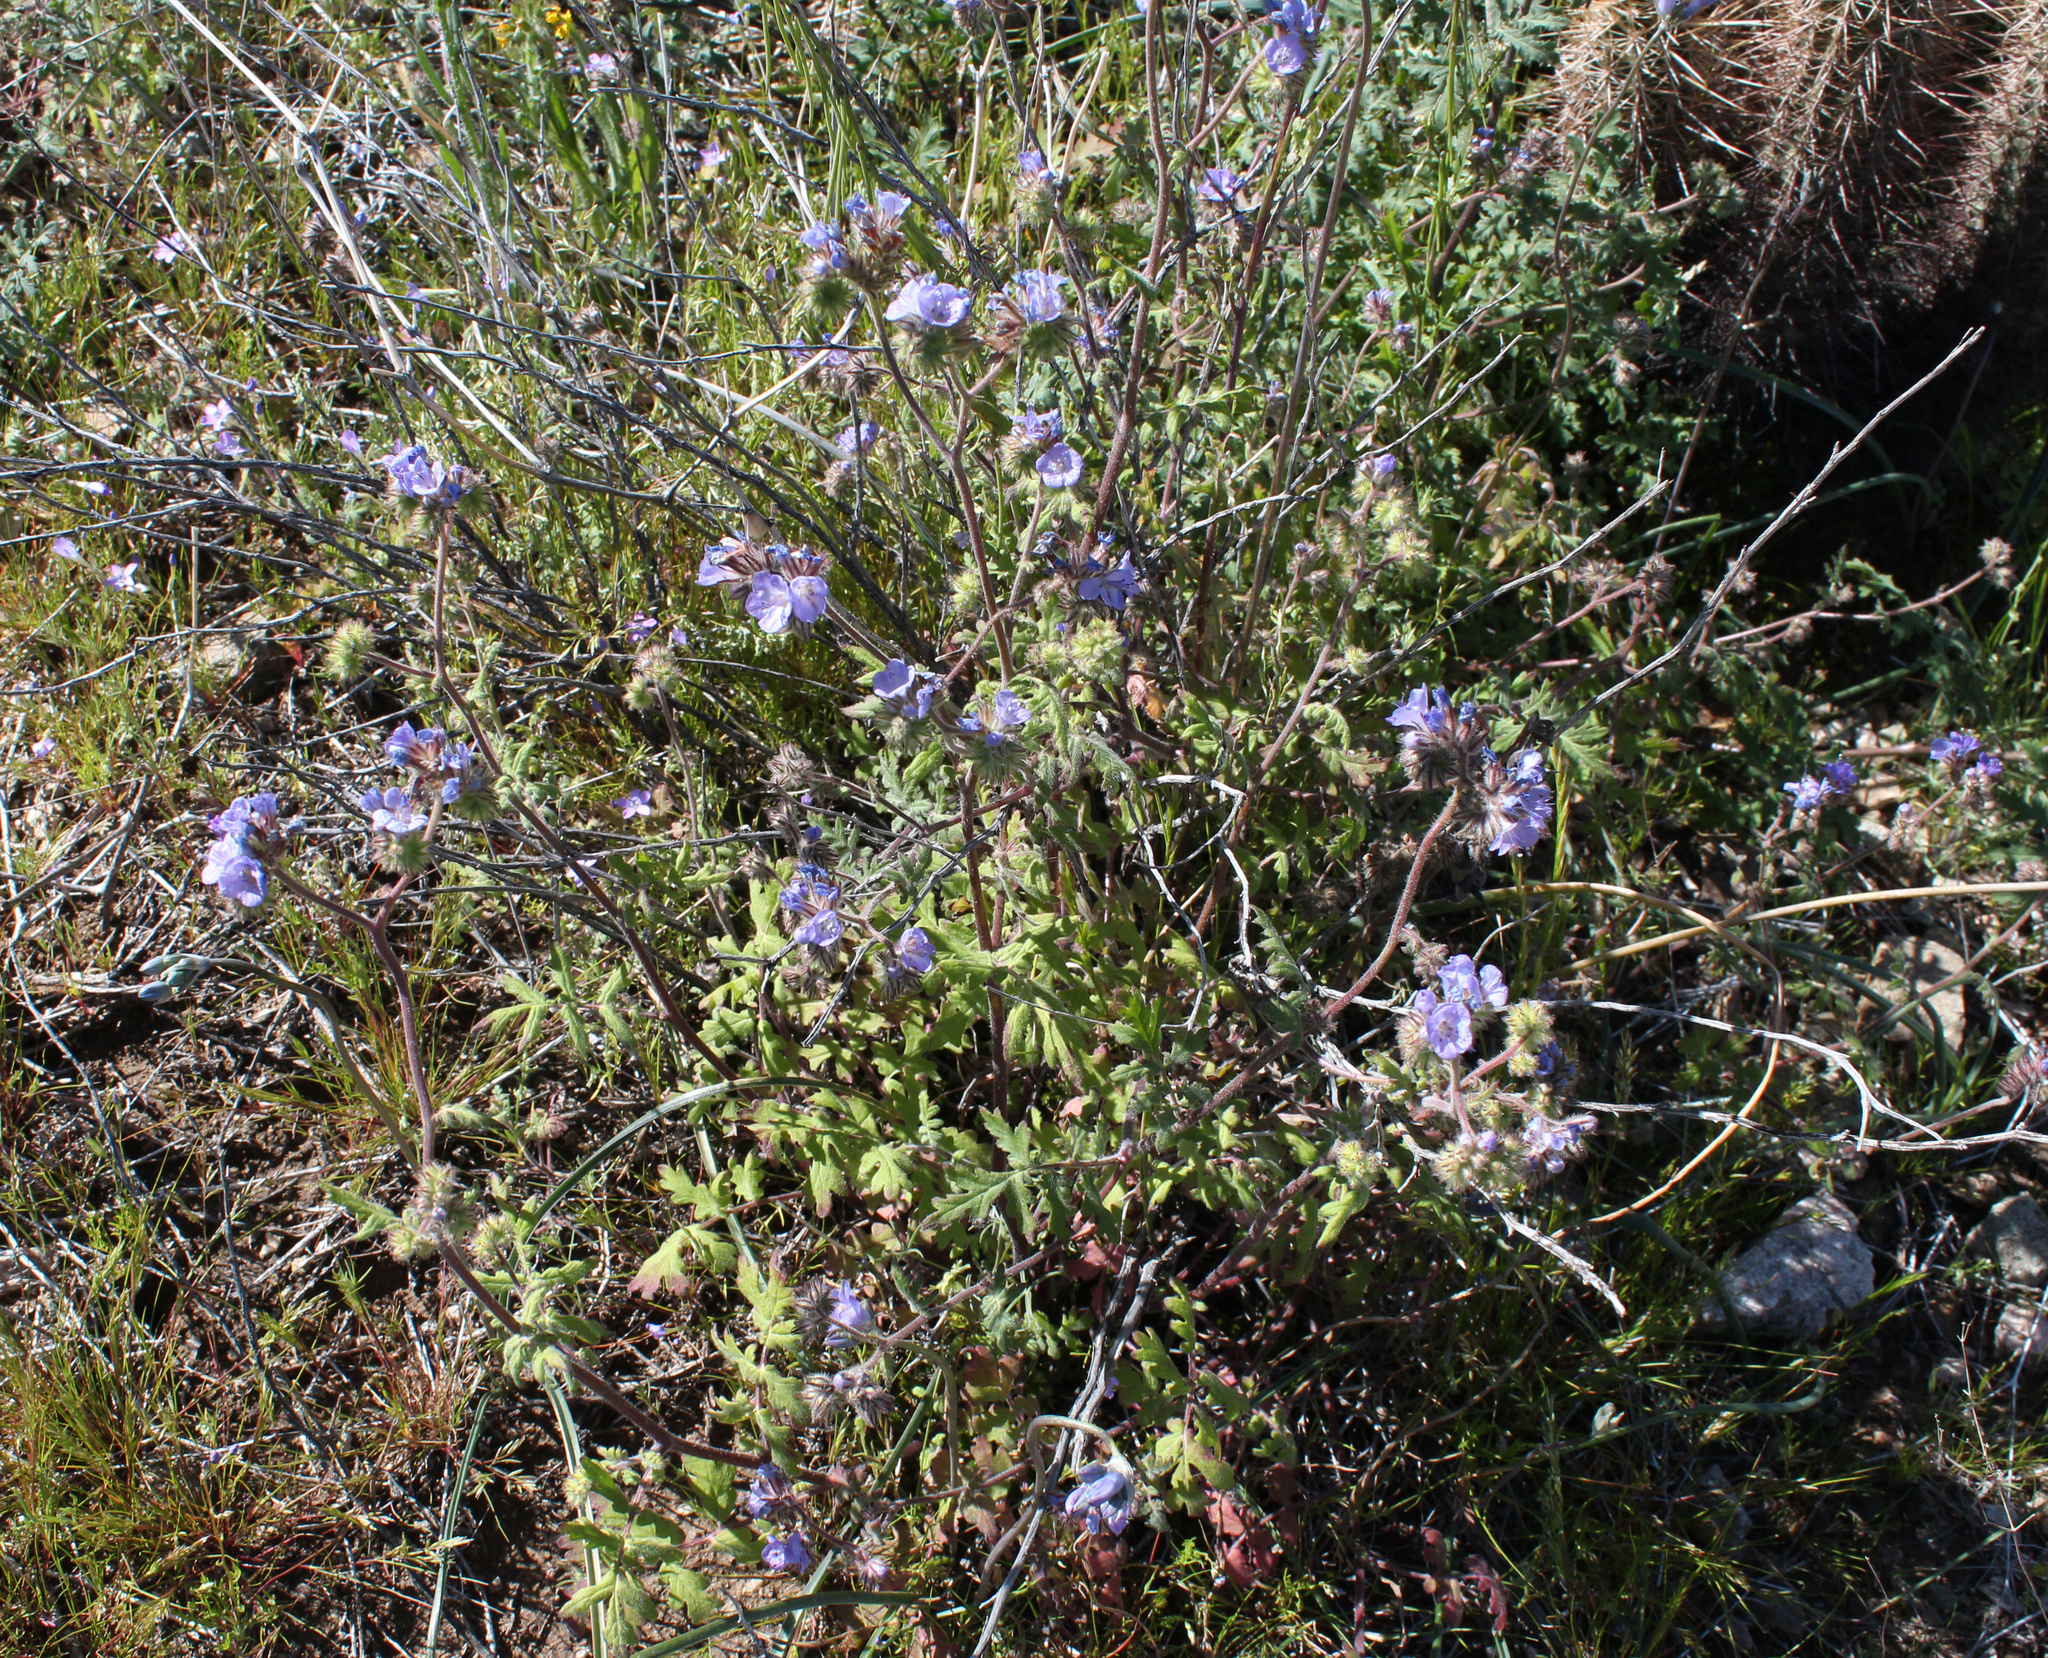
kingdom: Plantae
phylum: Tracheophyta
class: Magnoliopsida
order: Boraginales
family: Hydrophyllaceae
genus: Phacelia
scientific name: Phacelia distans
